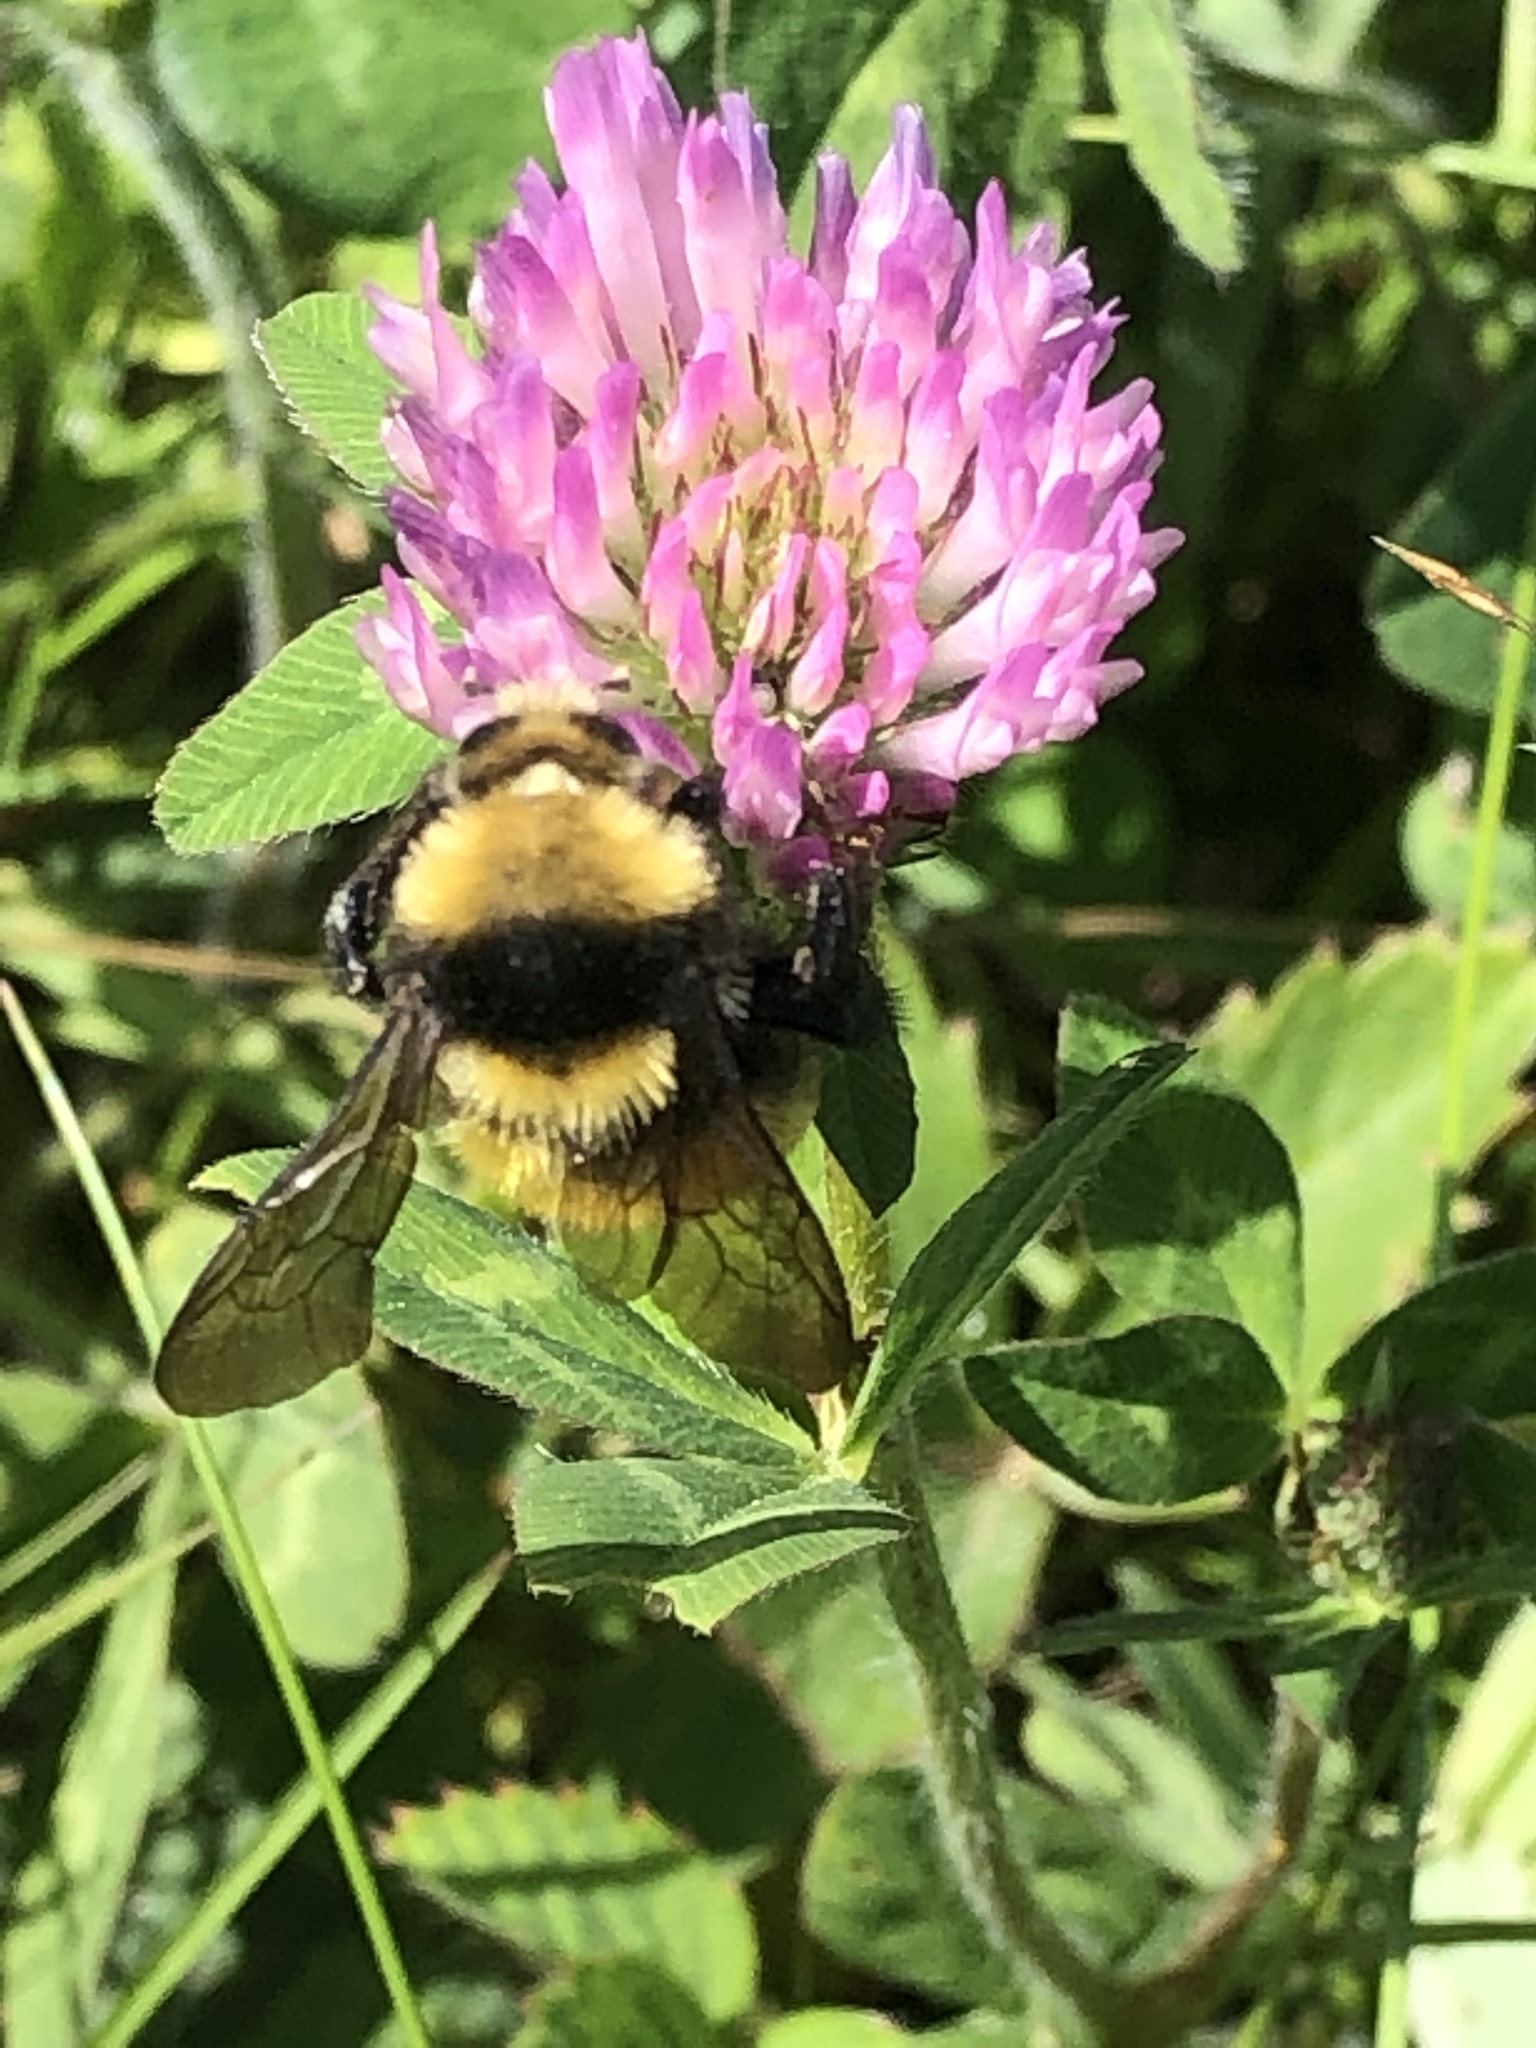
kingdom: Animalia
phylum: Arthropoda
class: Insecta
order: Hymenoptera
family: Apidae
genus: Bombus
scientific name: Bombus borealis
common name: Northern amber bumble bee
